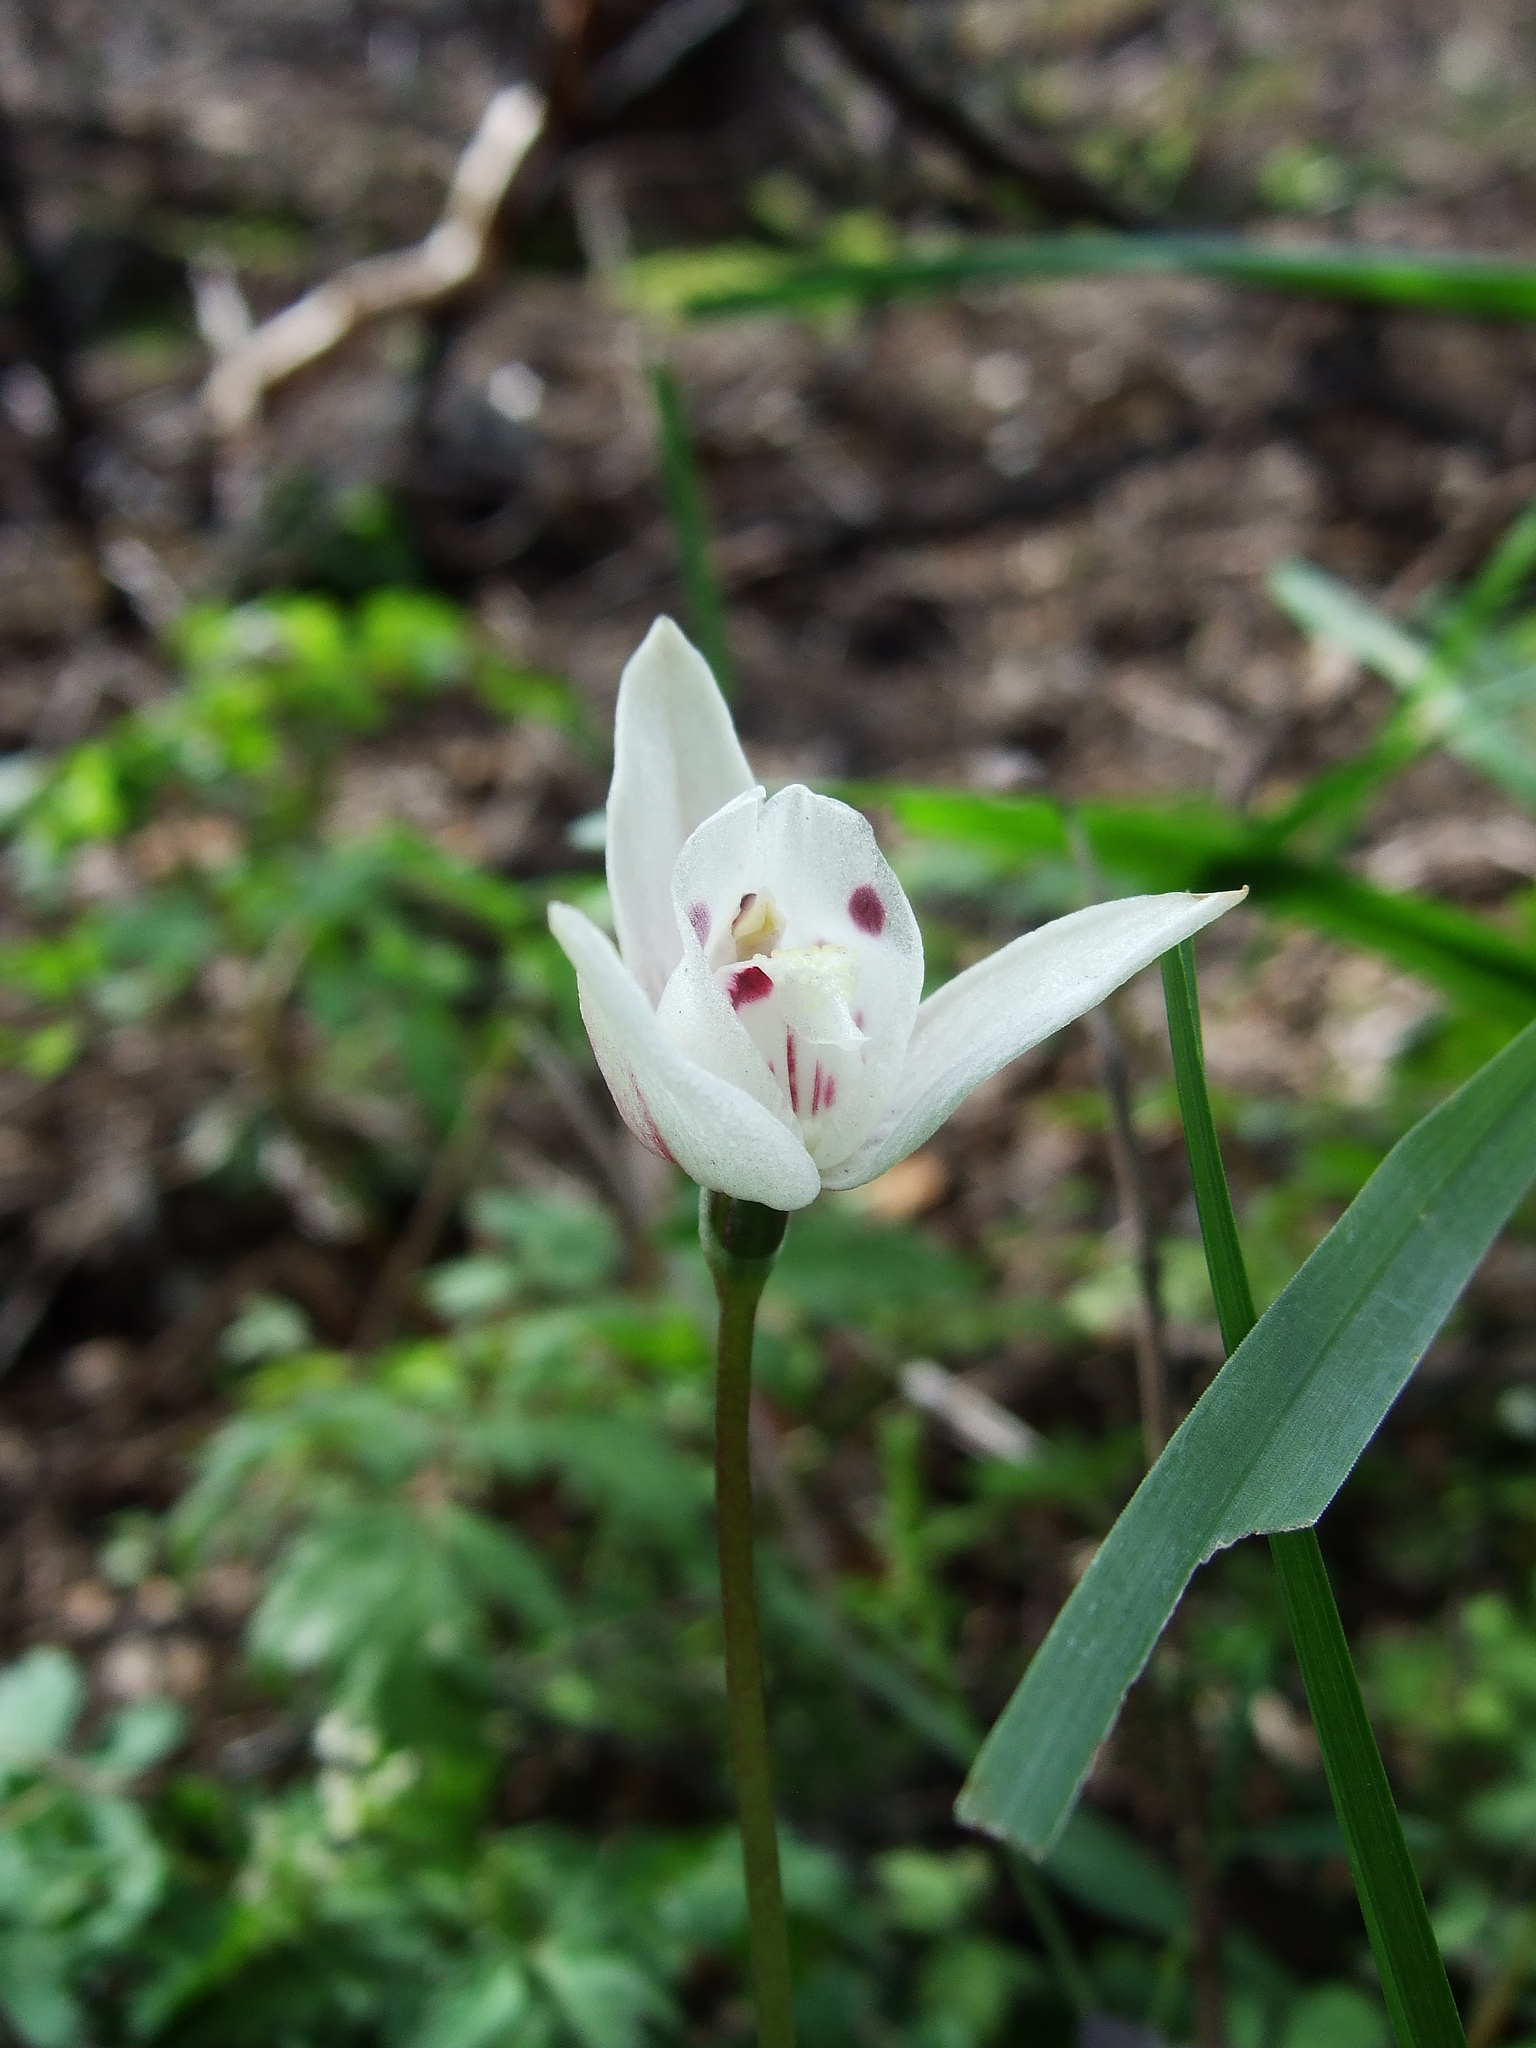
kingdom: Plantae
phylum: Tracheophyta
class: Liliopsida
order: Asparagales
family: Orchidaceae
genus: Codonorchis
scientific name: Codonorchis lessonii
